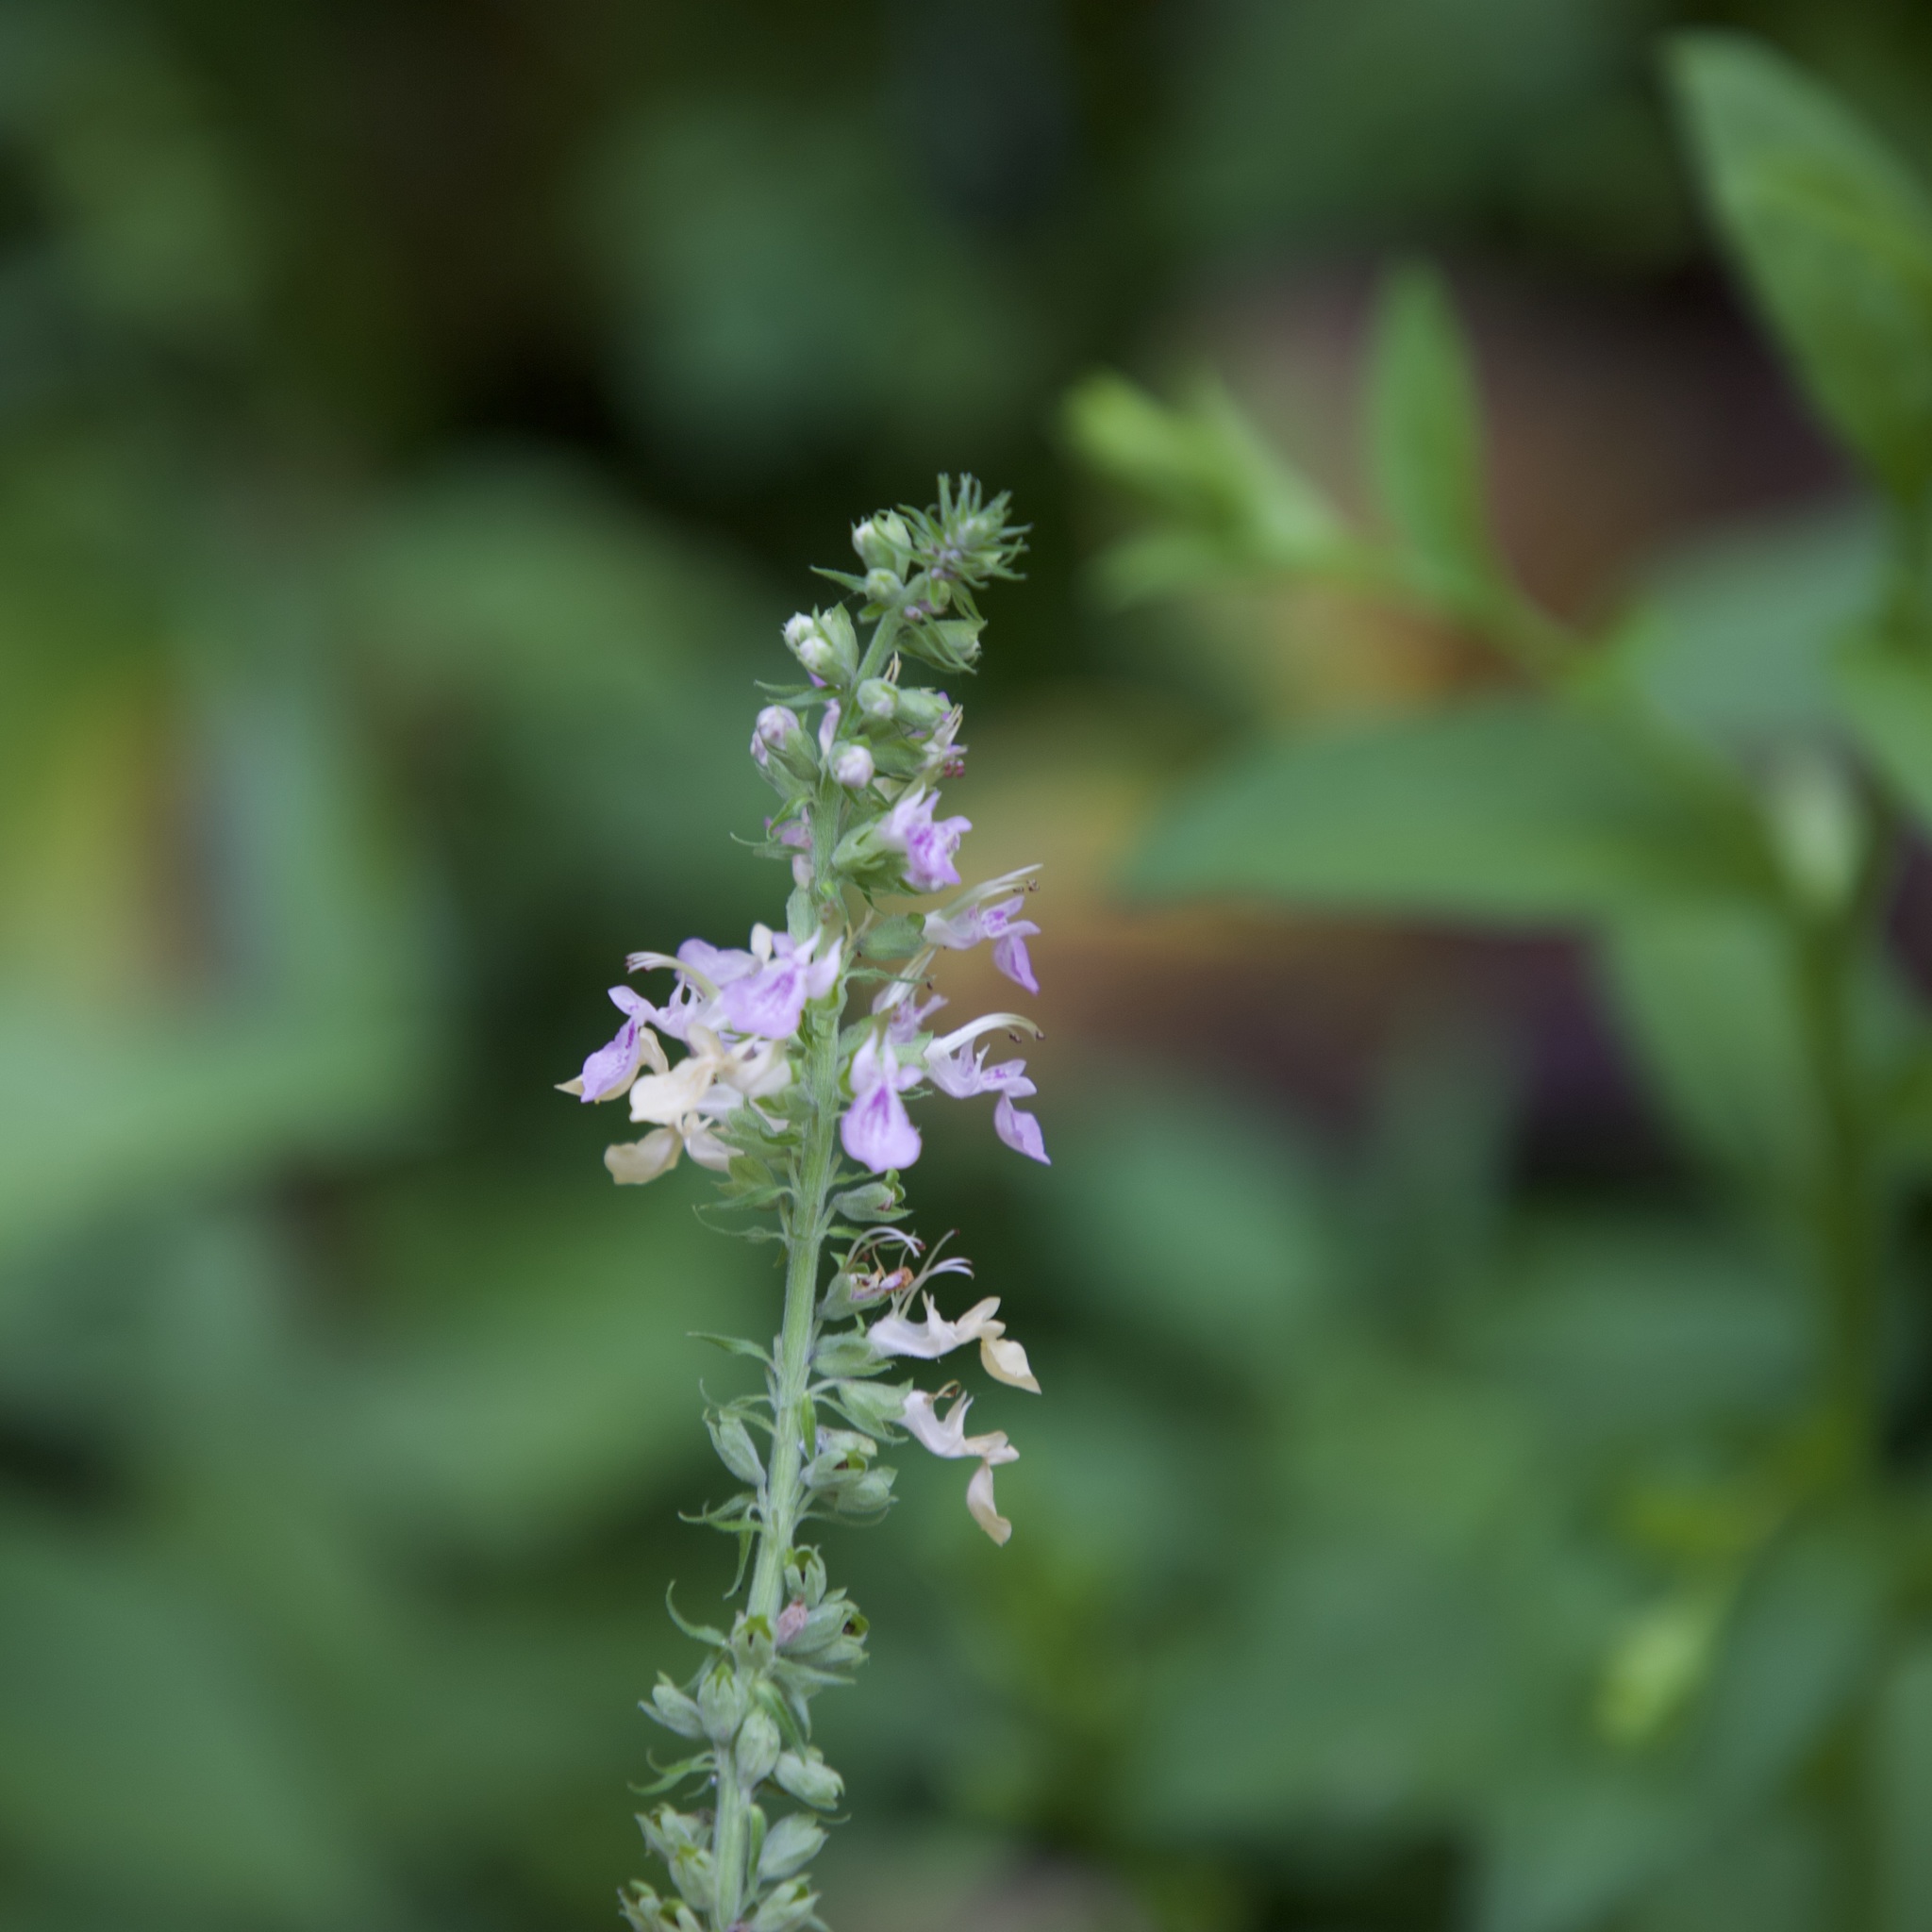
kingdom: Plantae
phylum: Tracheophyta
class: Magnoliopsida
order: Lamiales
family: Lamiaceae
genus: Teucrium
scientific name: Teucrium canadense
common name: American germander
